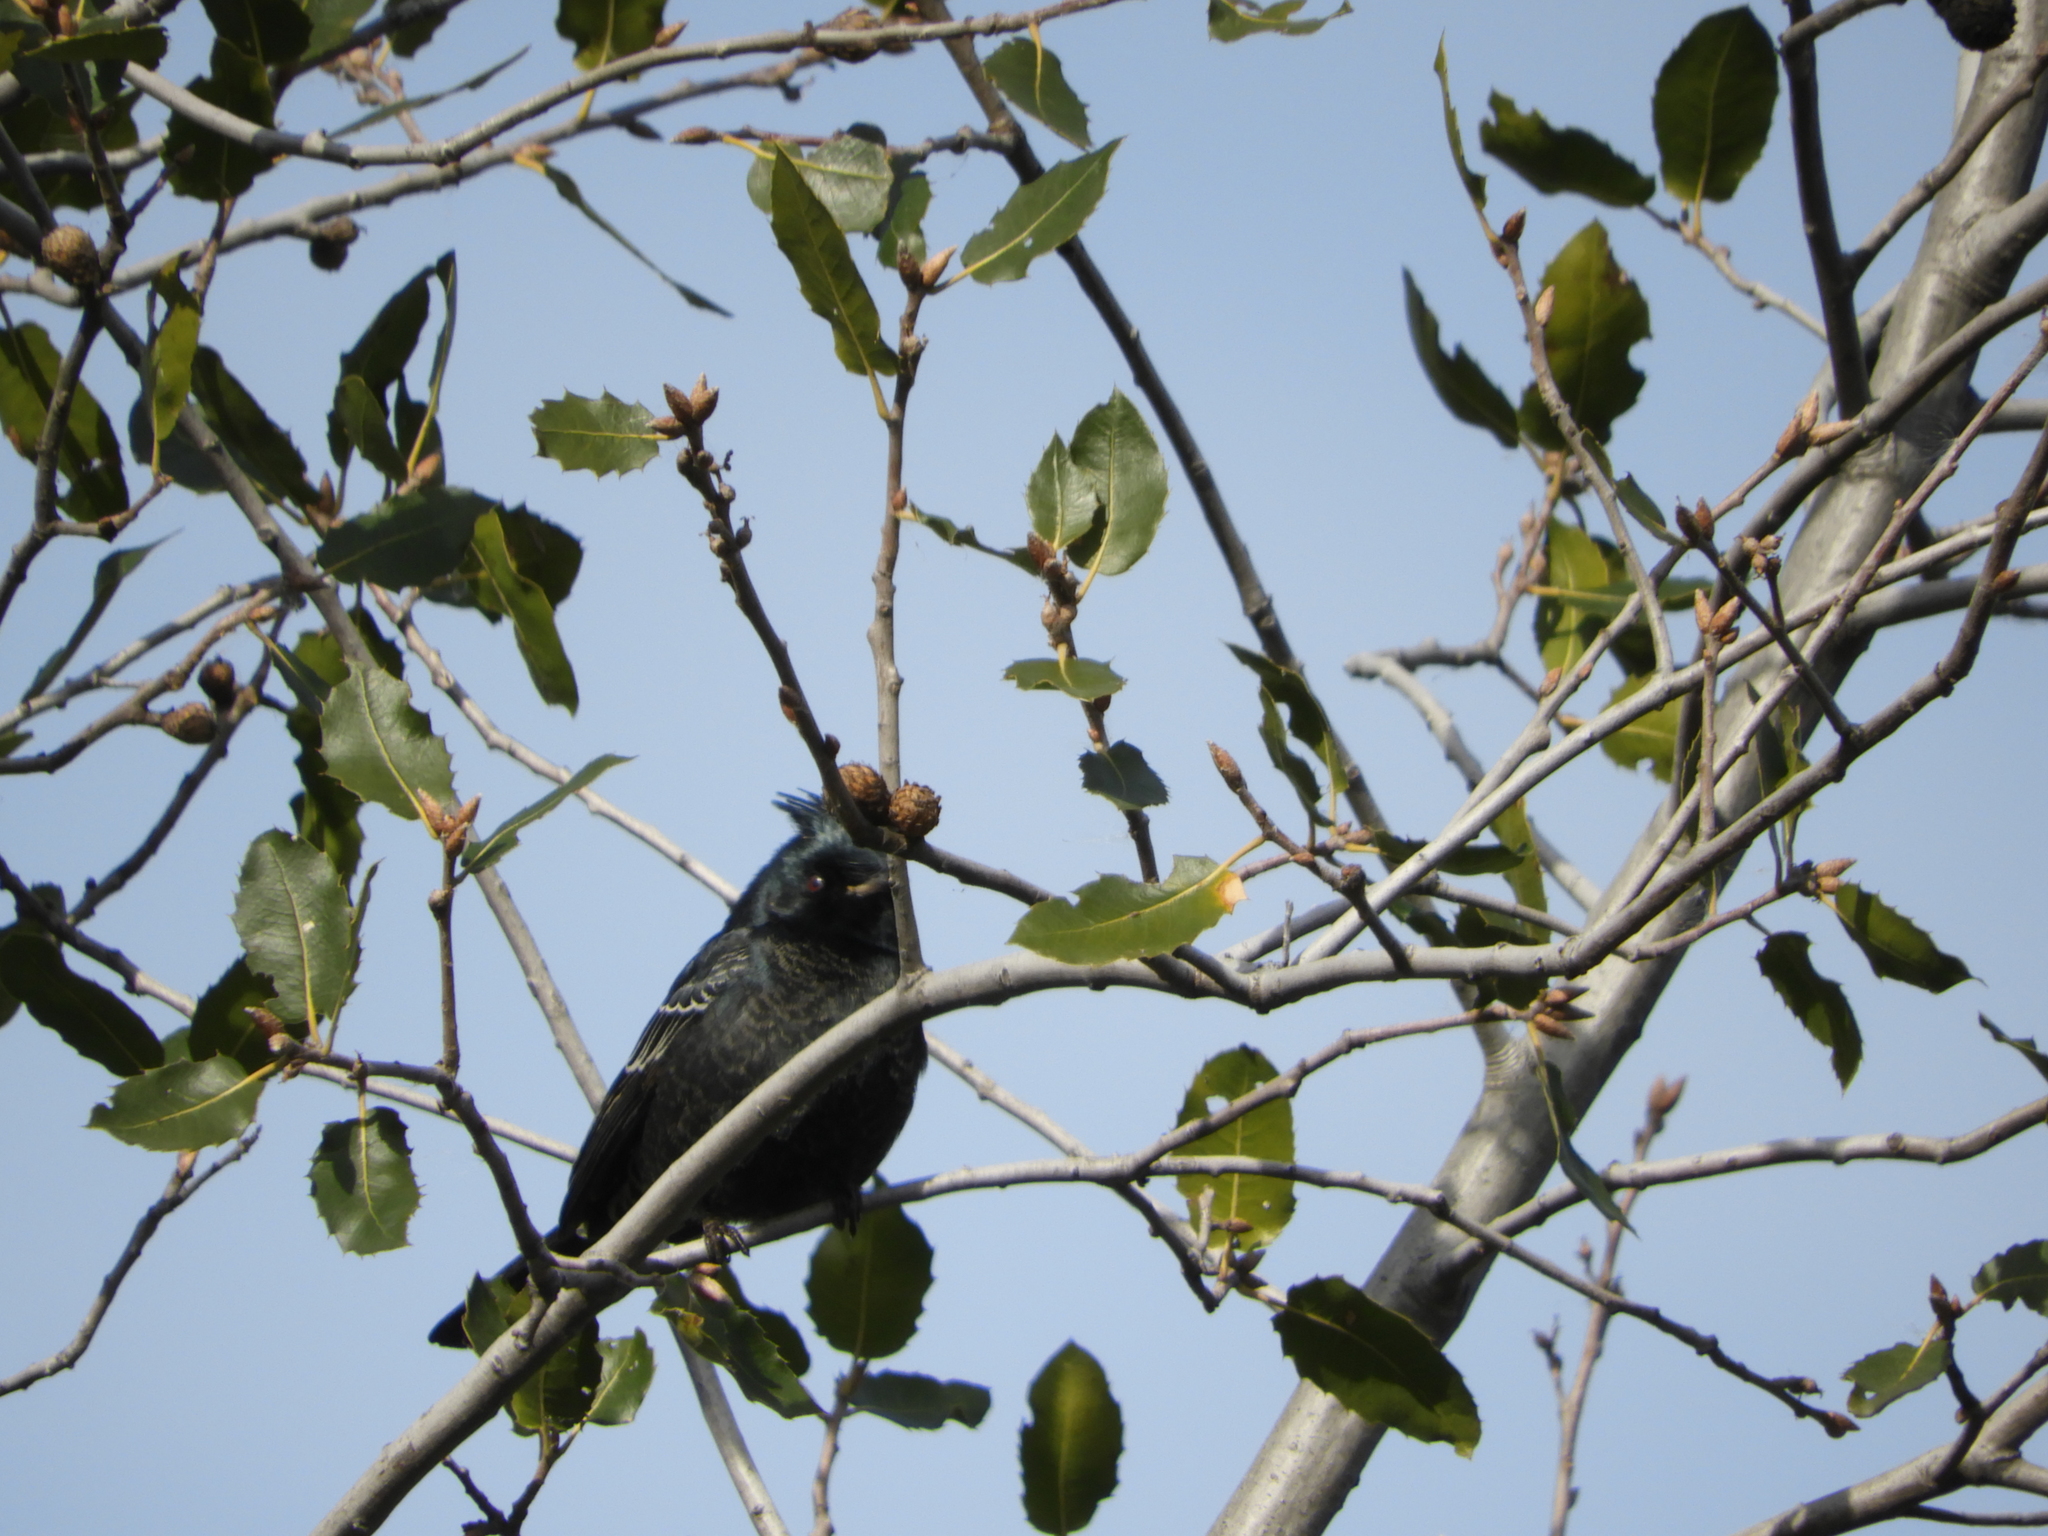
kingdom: Animalia
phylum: Chordata
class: Aves
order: Passeriformes
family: Ptilogonatidae
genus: Phainopepla
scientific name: Phainopepla nitens
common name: Phainopepla
